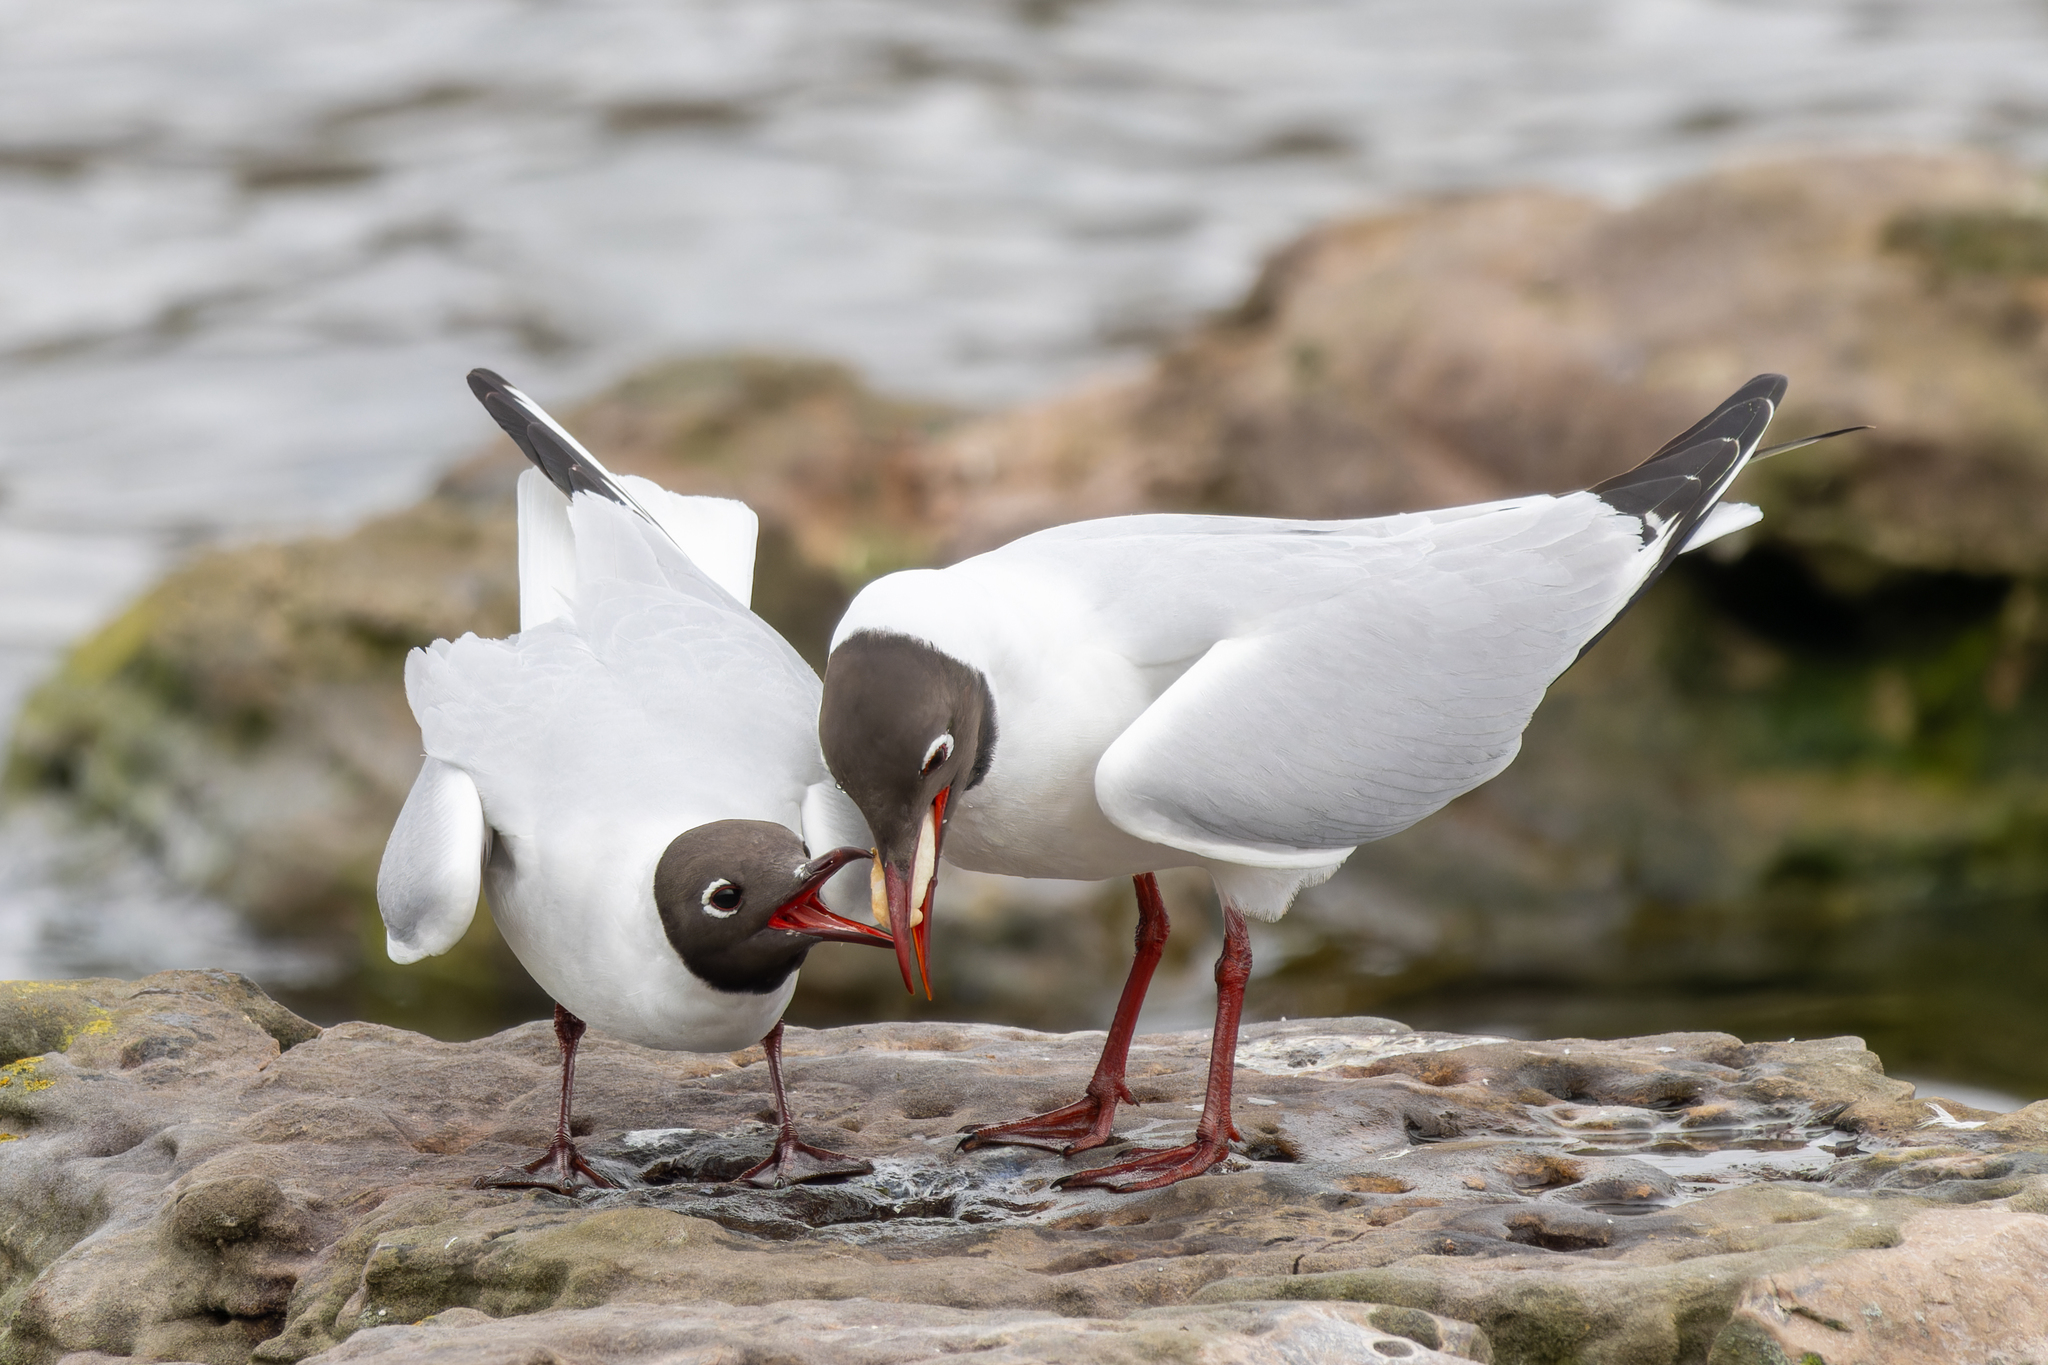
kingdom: Animalia
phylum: Chordata
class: Aves
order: Charadriiformes
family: Laridae
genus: Chroicocephalus
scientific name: Chroicocephalus ridibundus
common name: Black-headed gull
